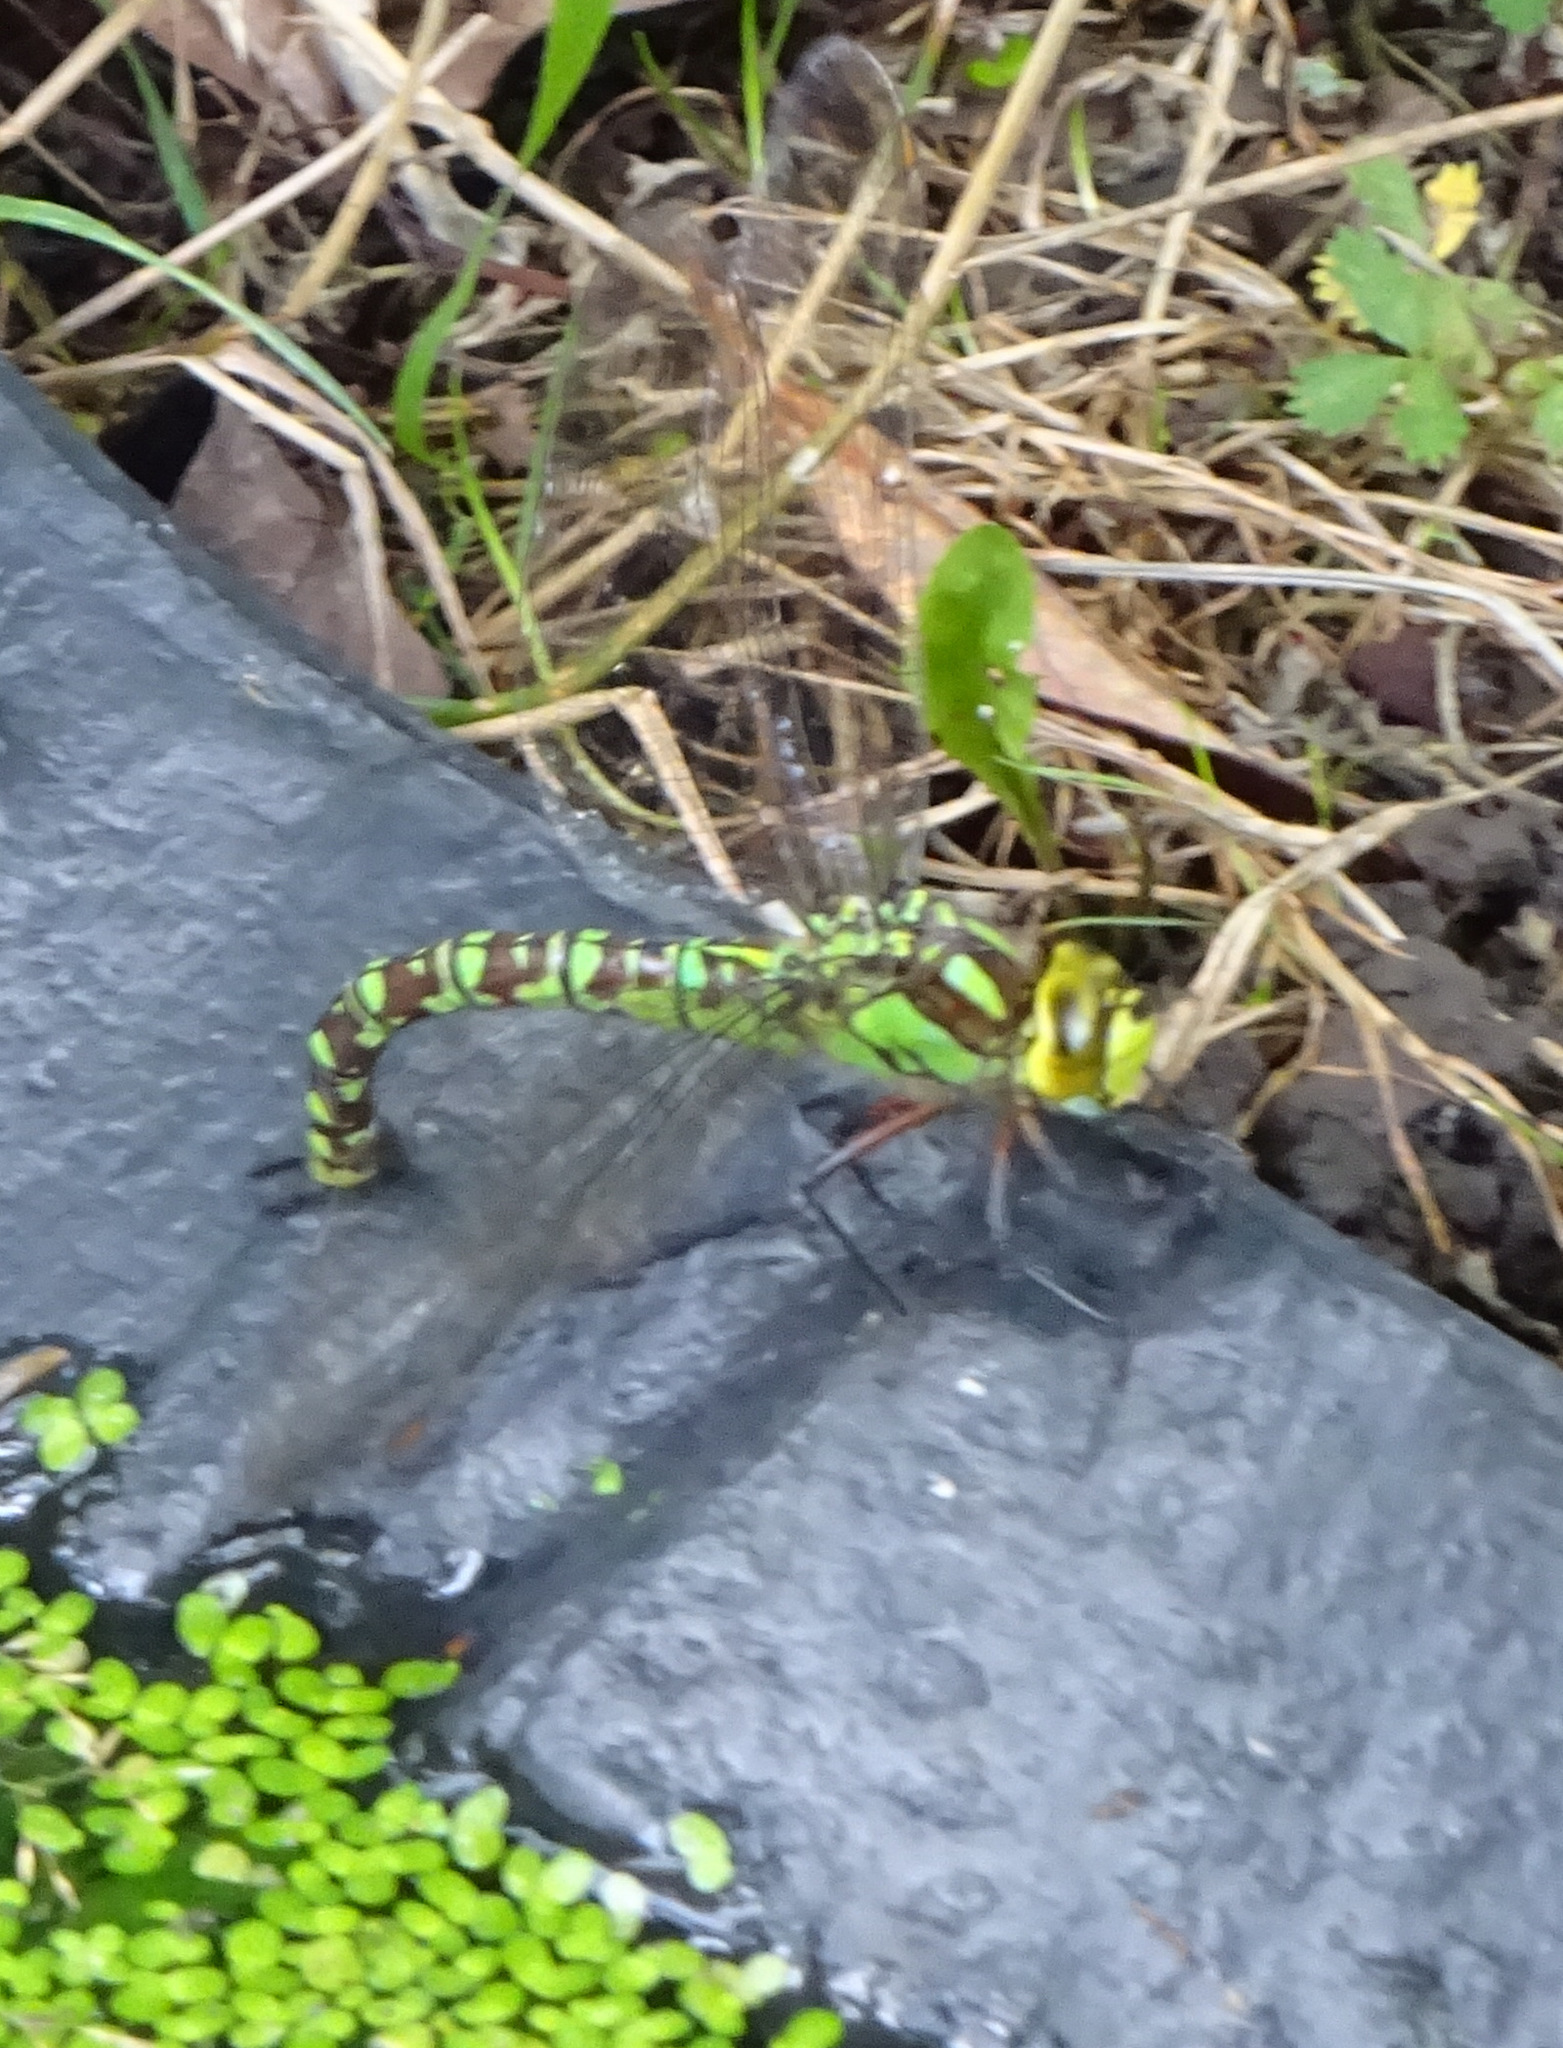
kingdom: Animalia
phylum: Arthropoda
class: Insecta
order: Odonata
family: Aeshnidae
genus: Aeshna
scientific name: Aeshna cyanea
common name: Southern hawker
